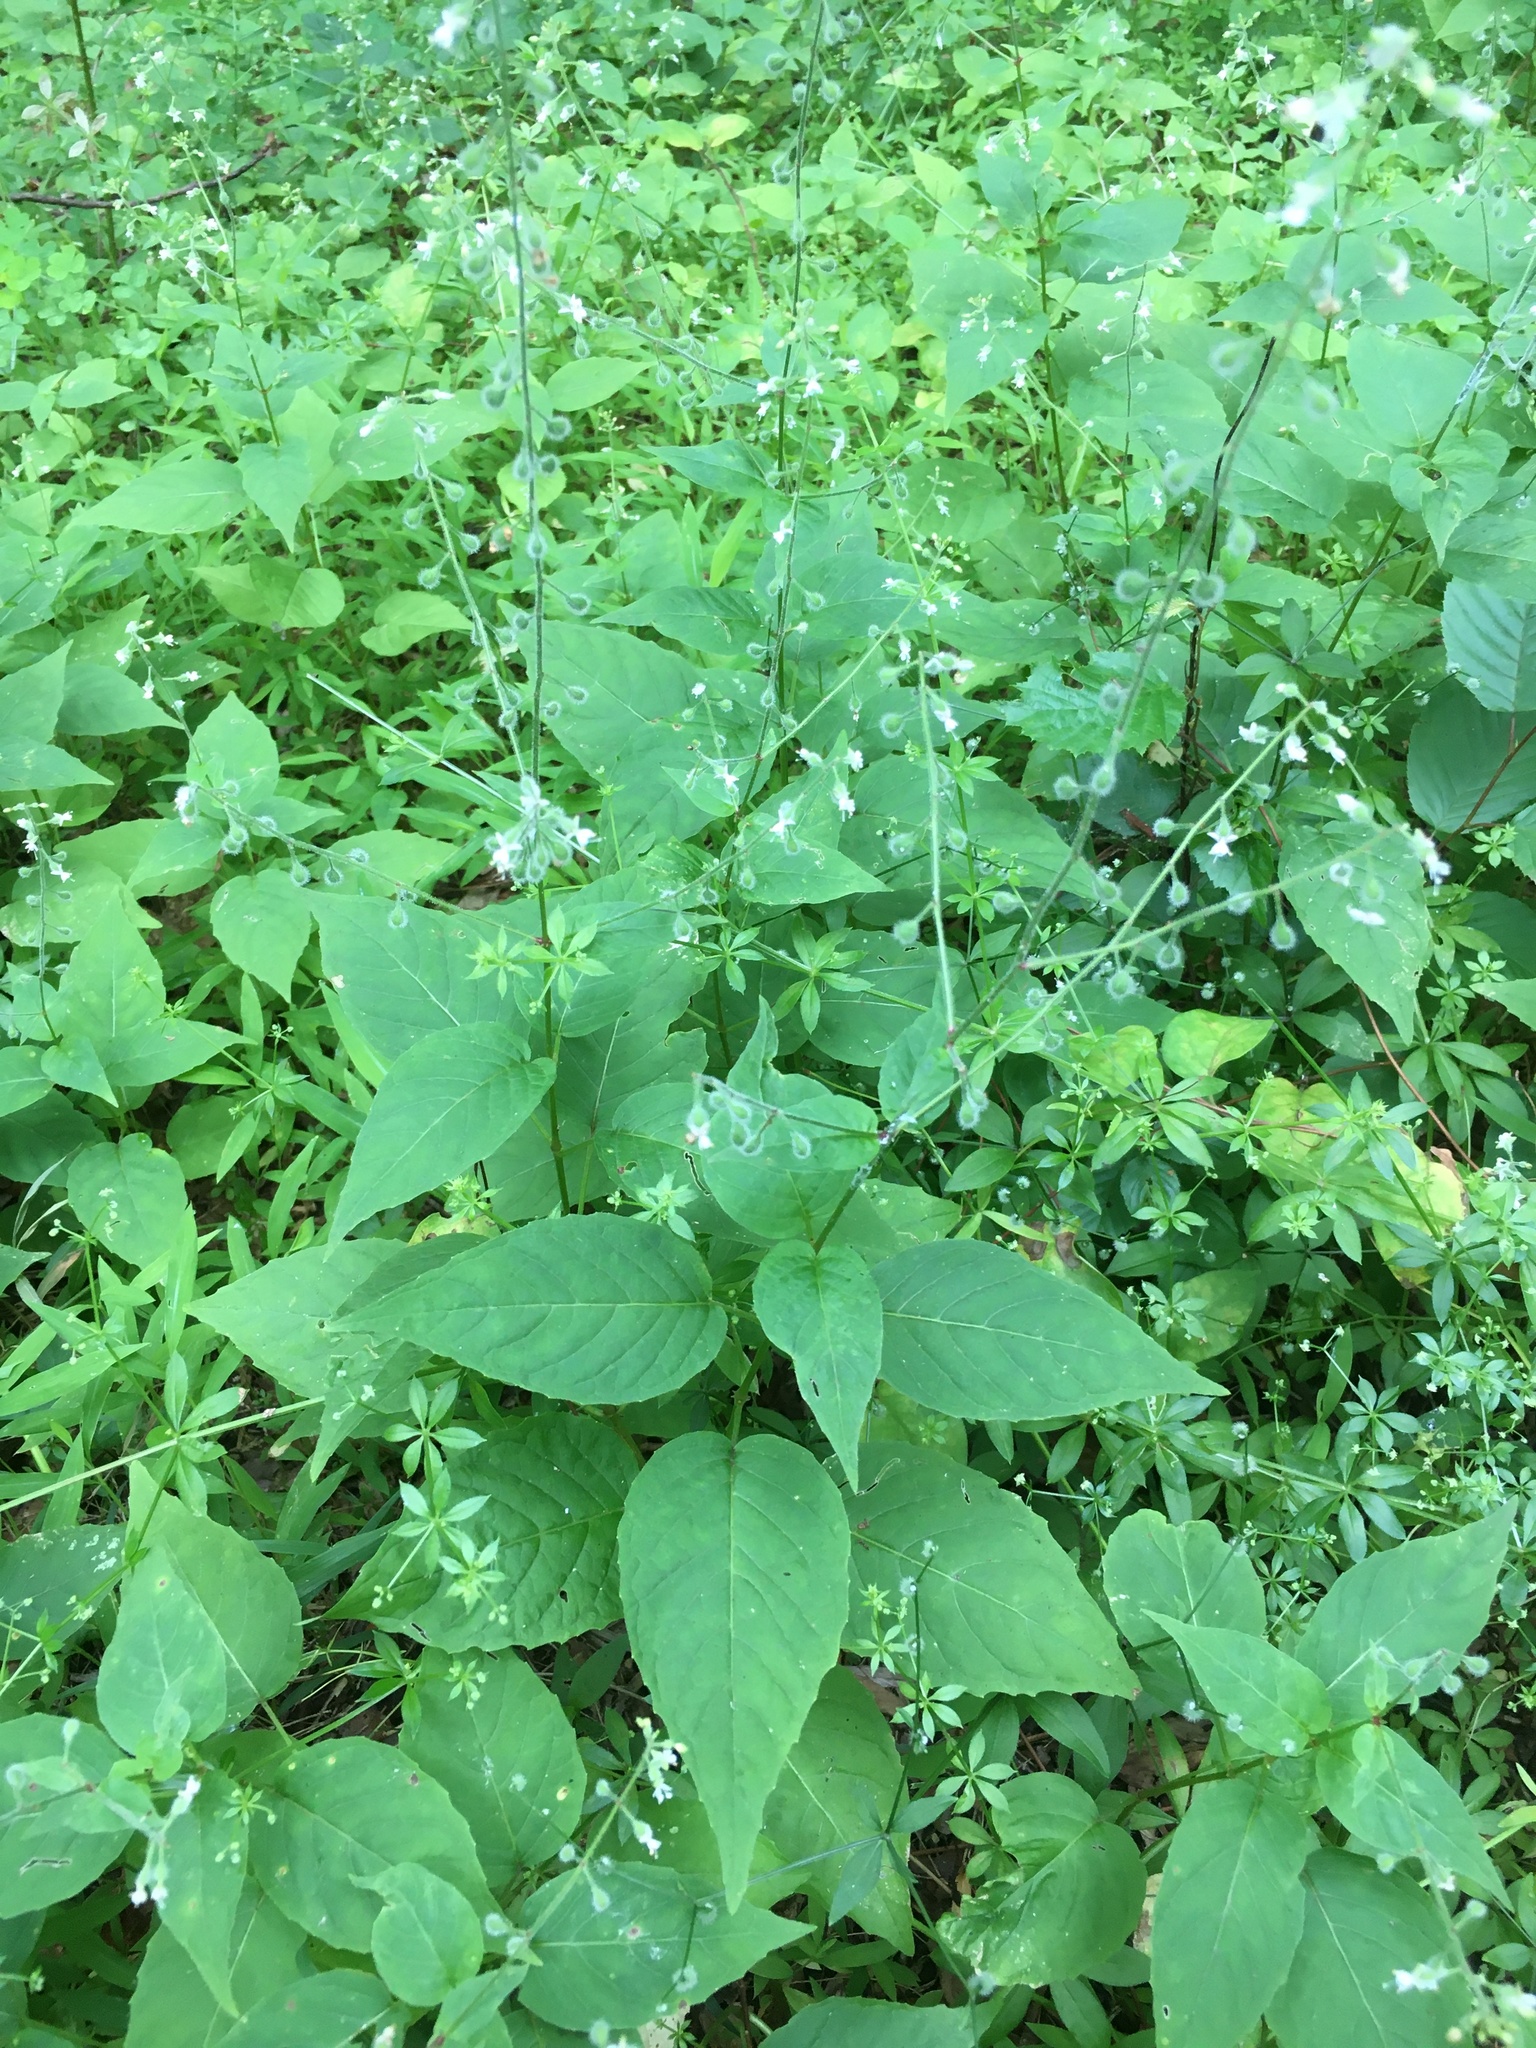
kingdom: Plantae
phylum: Tracheophyta
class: Magnoliopsida
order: Myrtales
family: Onagraceae
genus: Circaea
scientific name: Circaea canadensis
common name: Broad-leaved enchanter's nightshade
